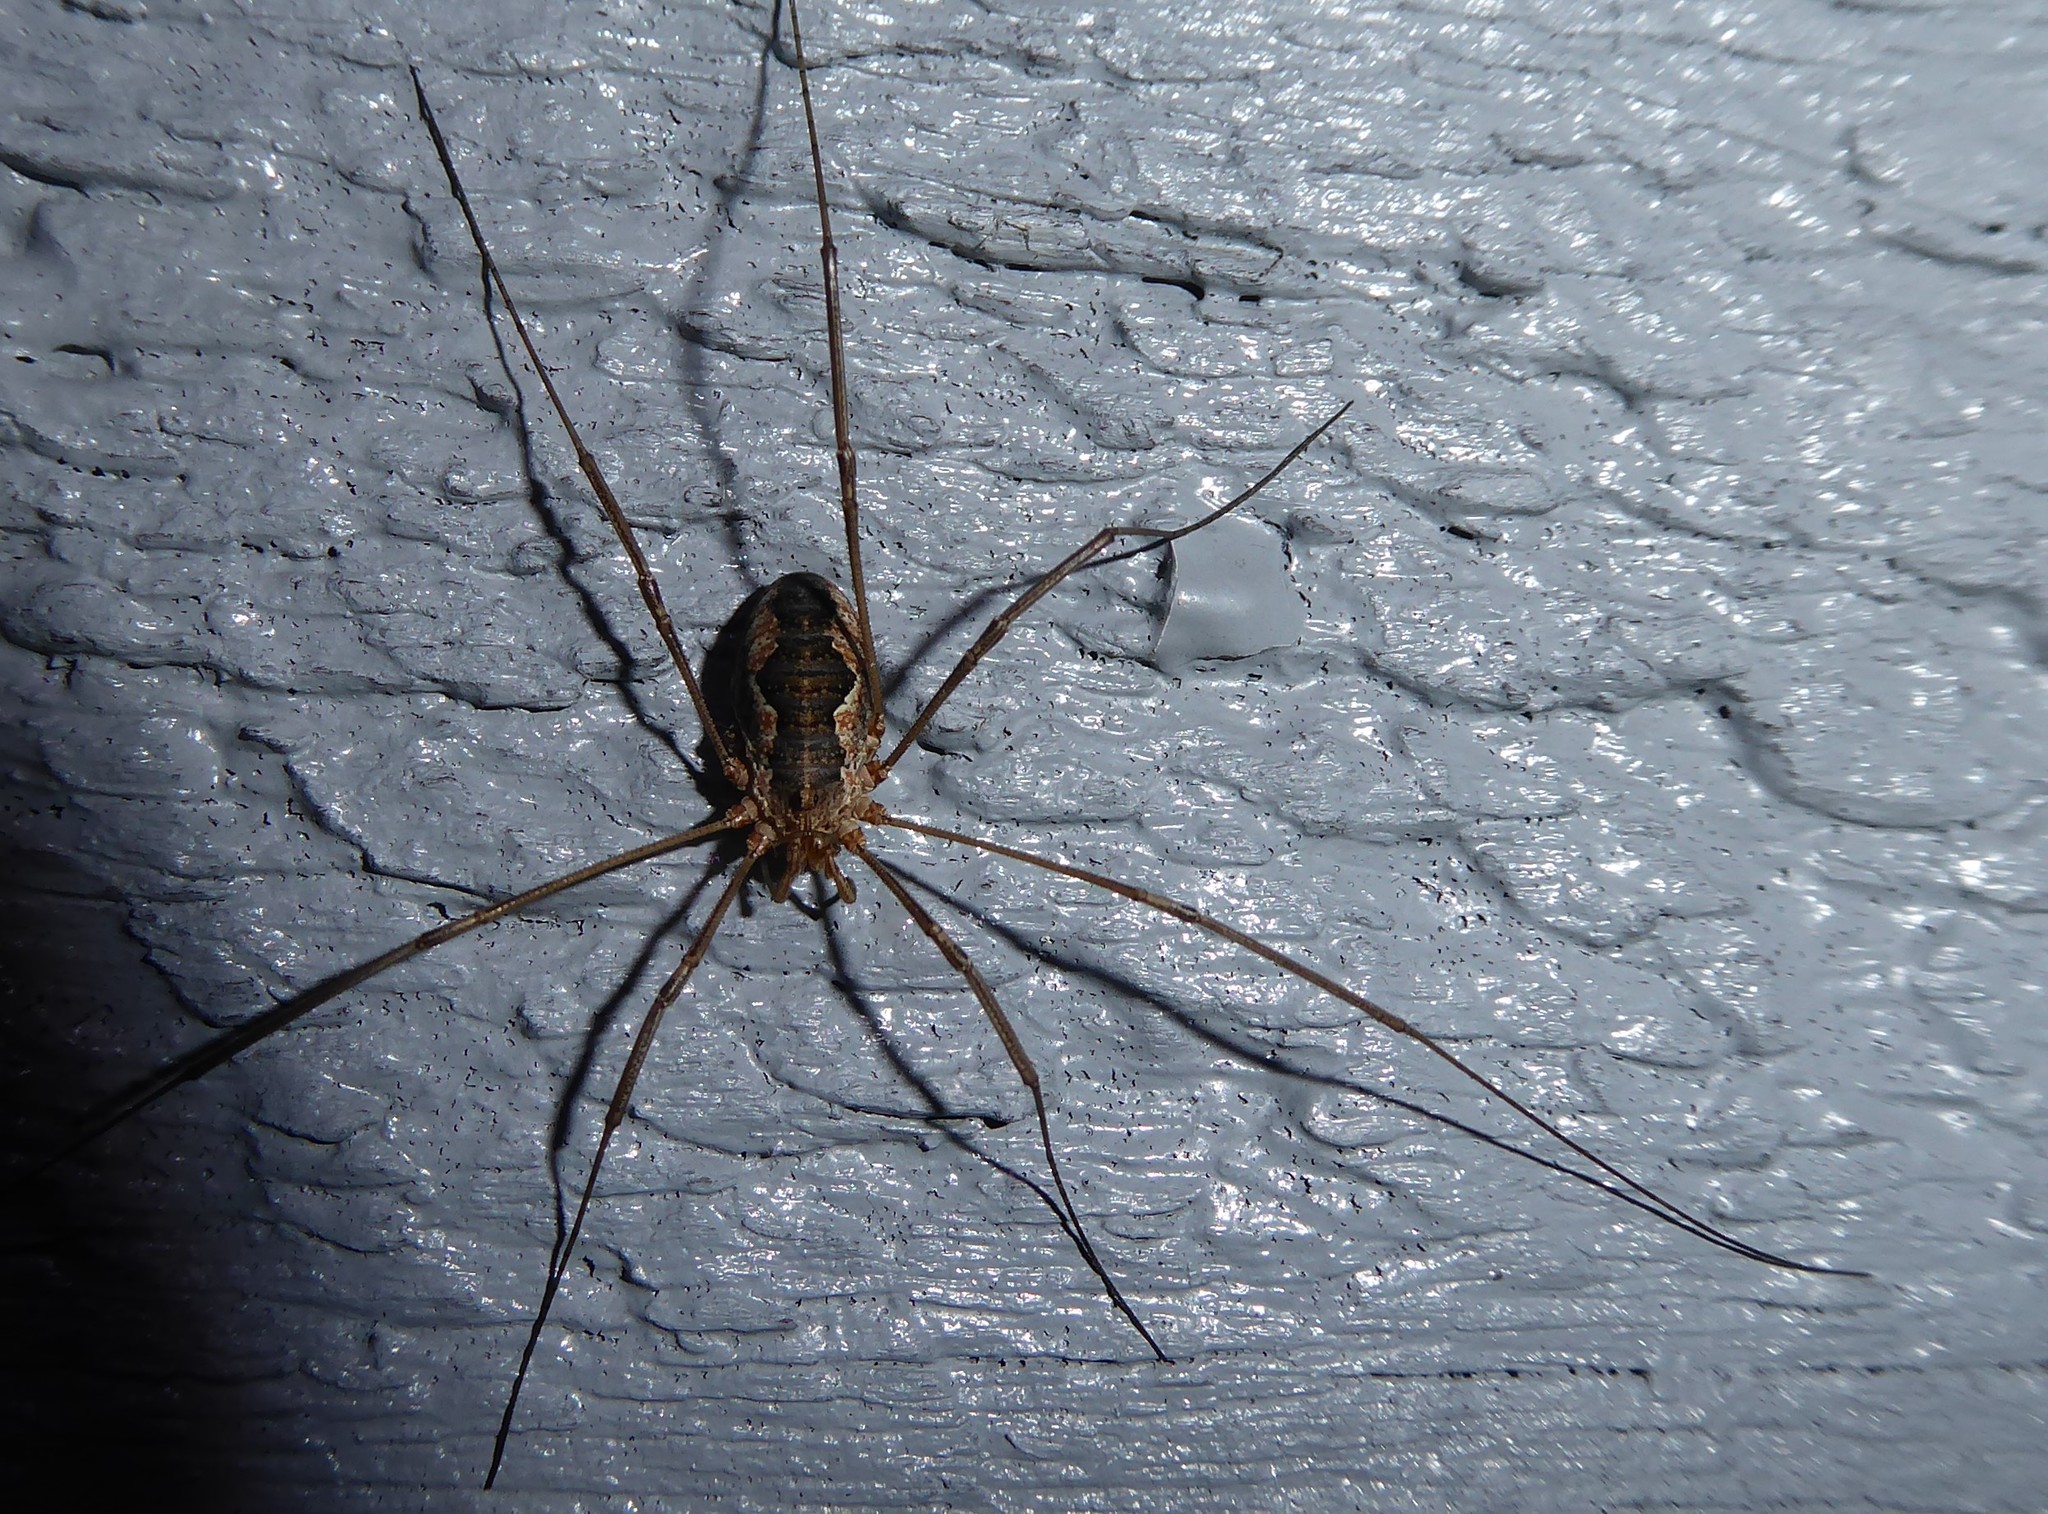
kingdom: Animalia
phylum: Arthropoda
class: Arachnida
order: Opiliones
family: Phalangiidae
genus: Phalangium
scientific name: Phalangium opilio
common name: Daddy longleg
